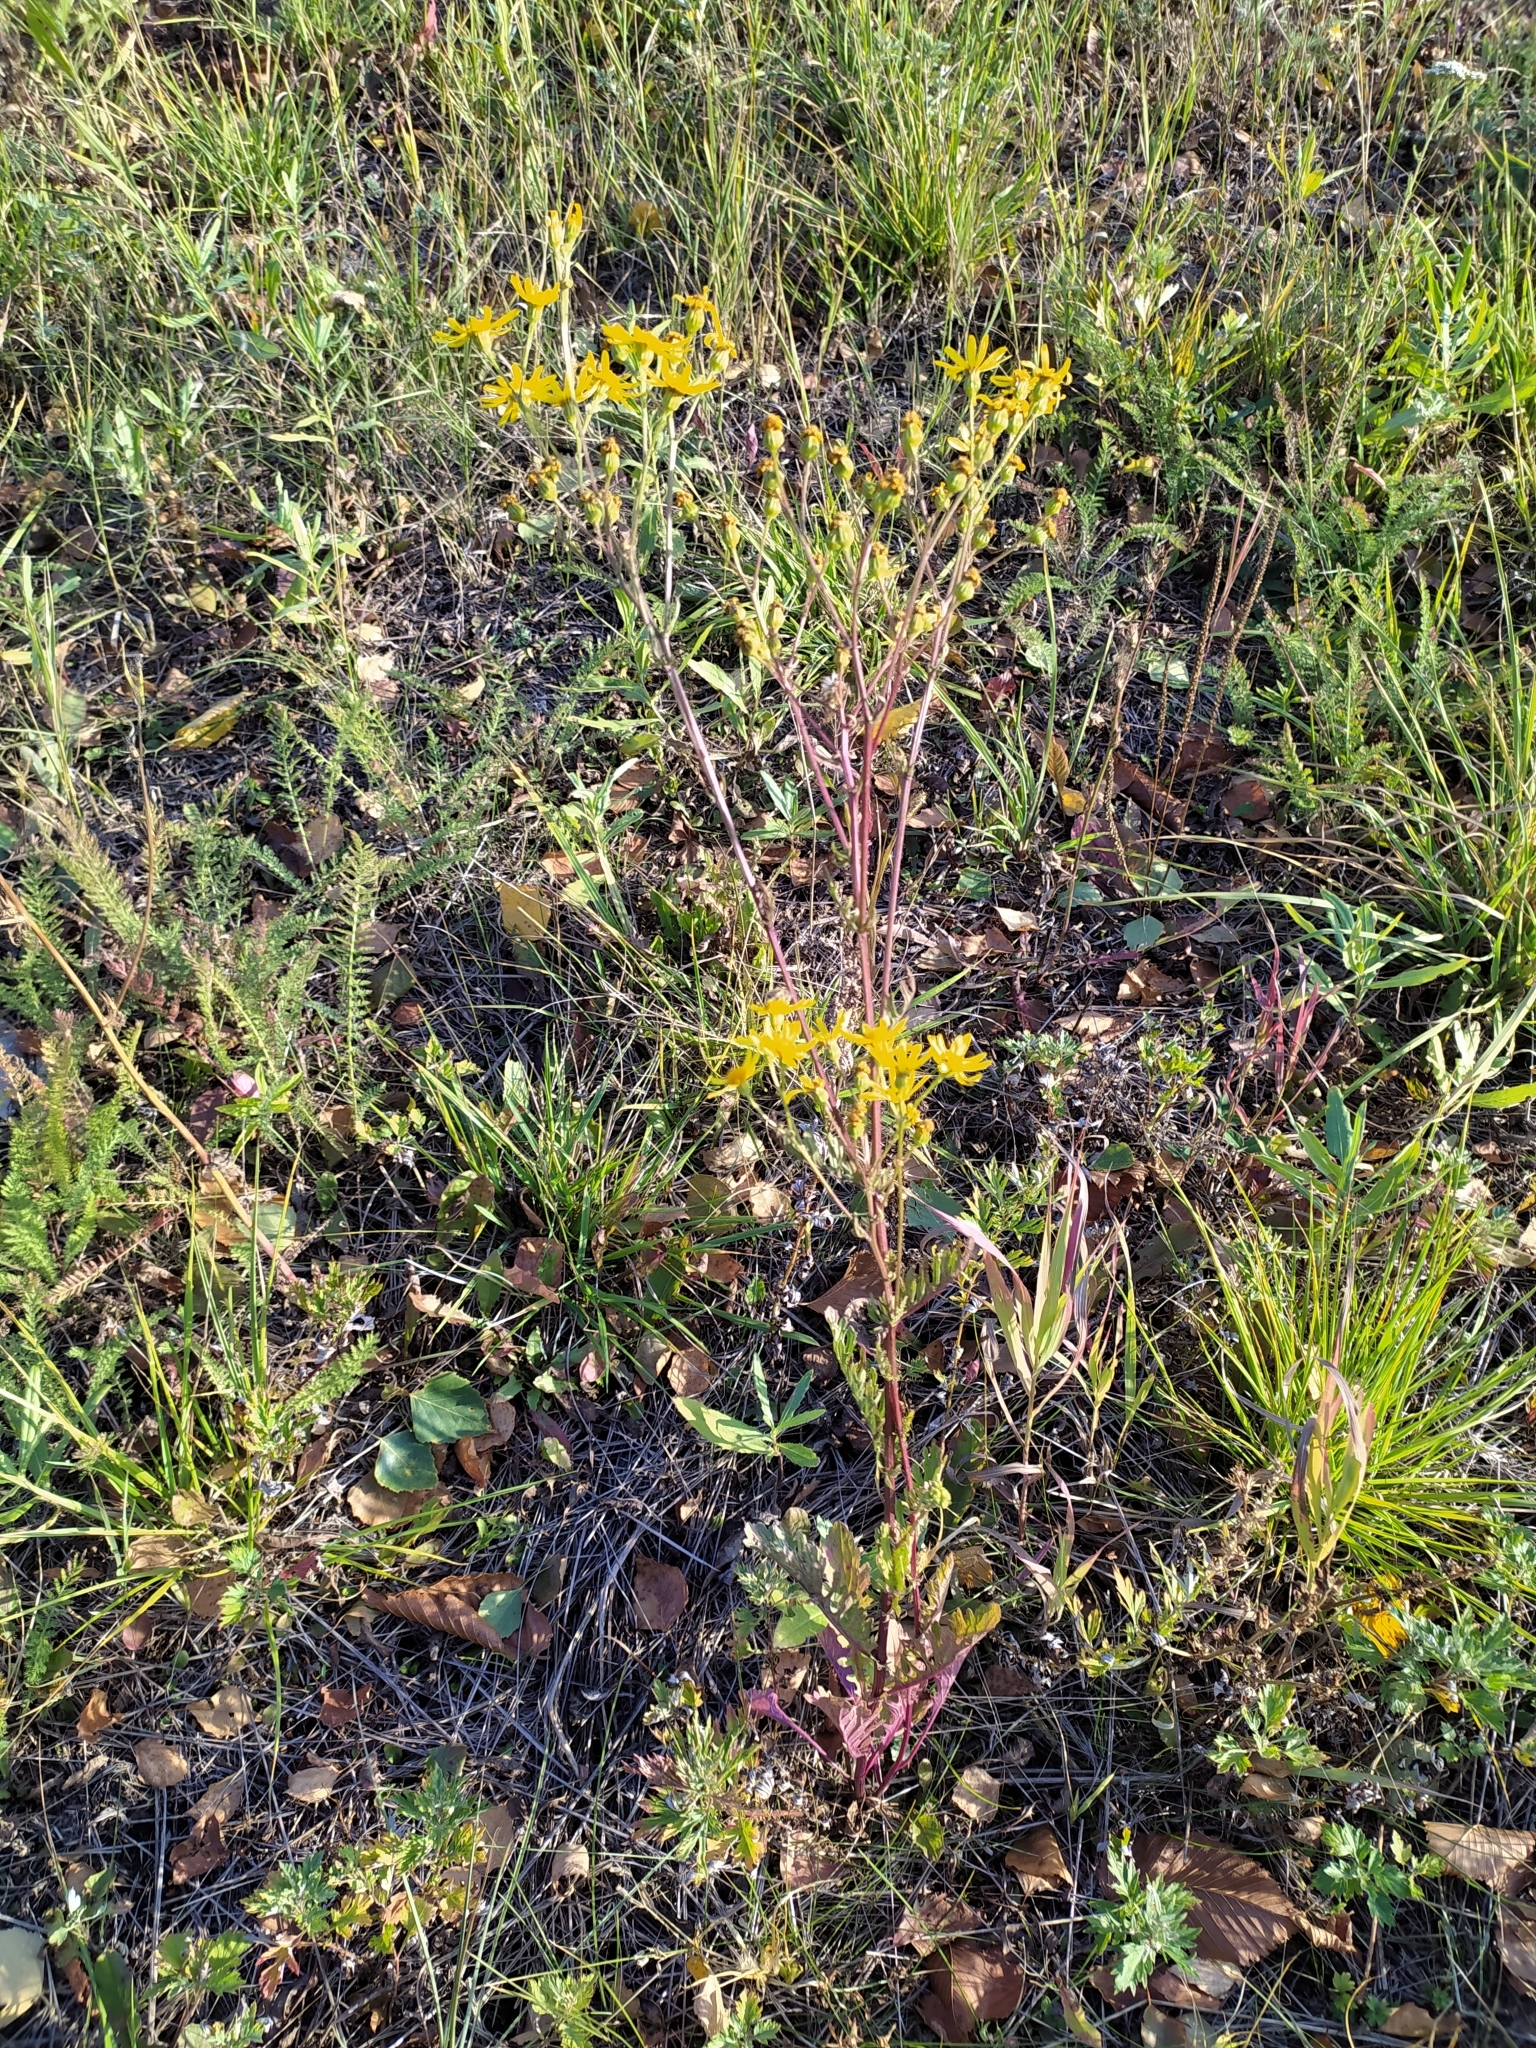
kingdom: Plantae
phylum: Tracheophyta
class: Magnoliopsida
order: Asterales
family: Asteraceae
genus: Jacobaea
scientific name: Jacobaea vulgaris
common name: Stinking willie
